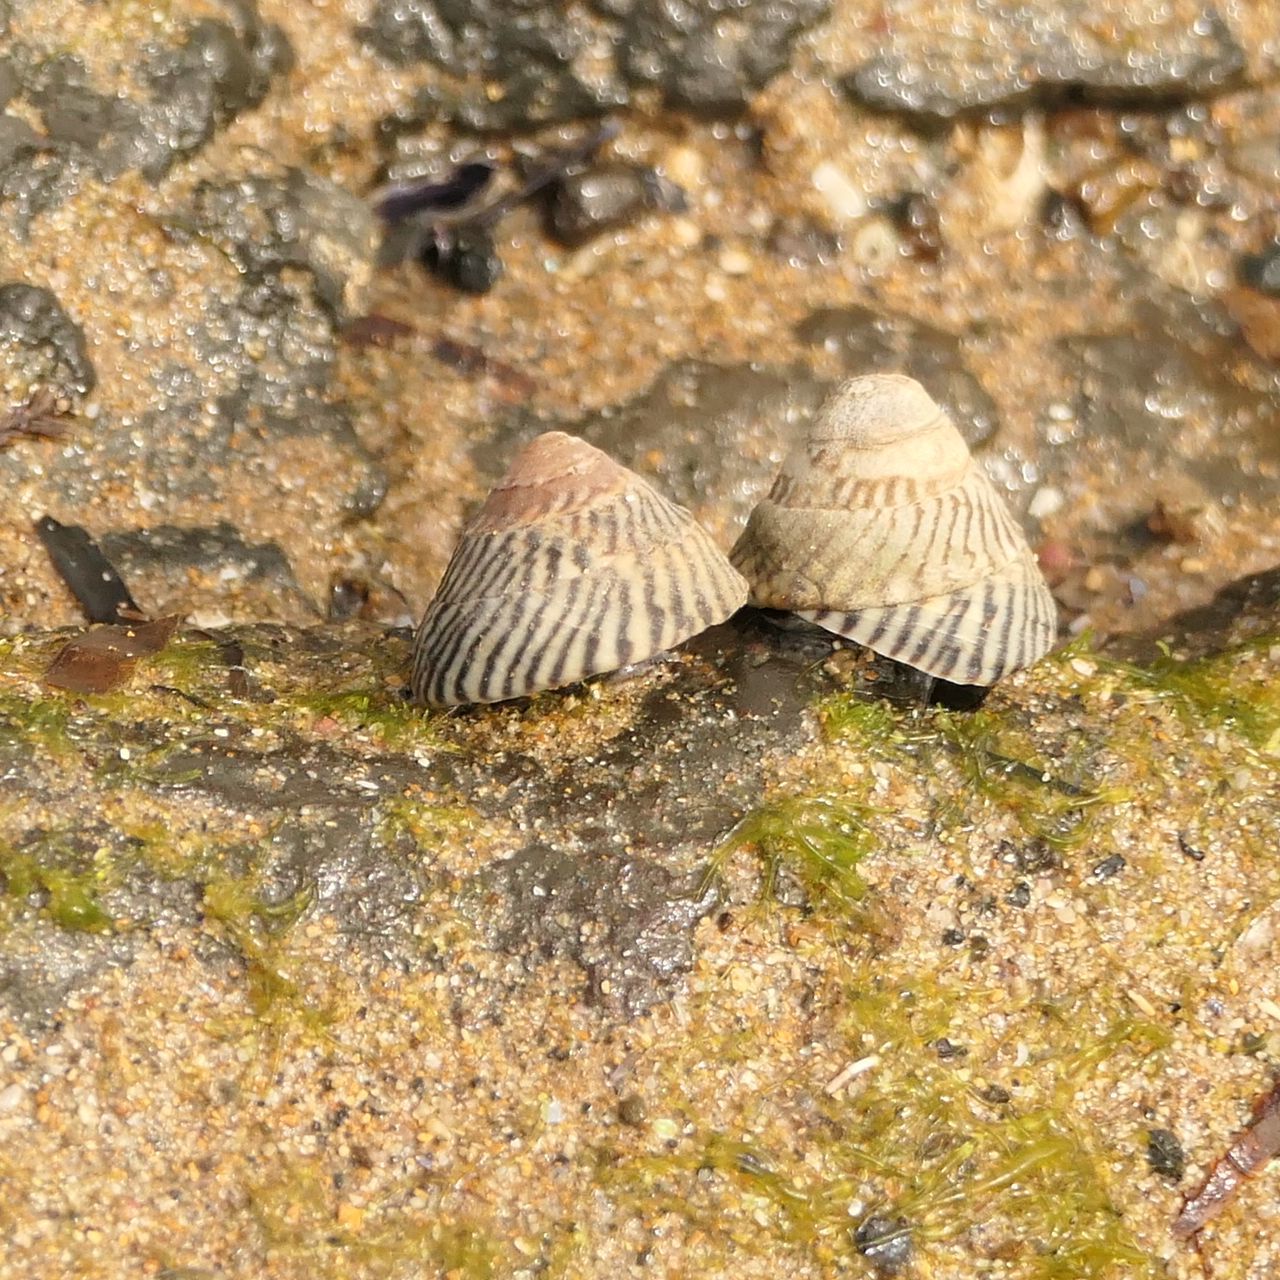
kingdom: Animalia
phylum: Mollusca
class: Gastropoda
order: Littorinimorpha
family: Littorinidae
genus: Bembicium
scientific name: Bembicium nanum
